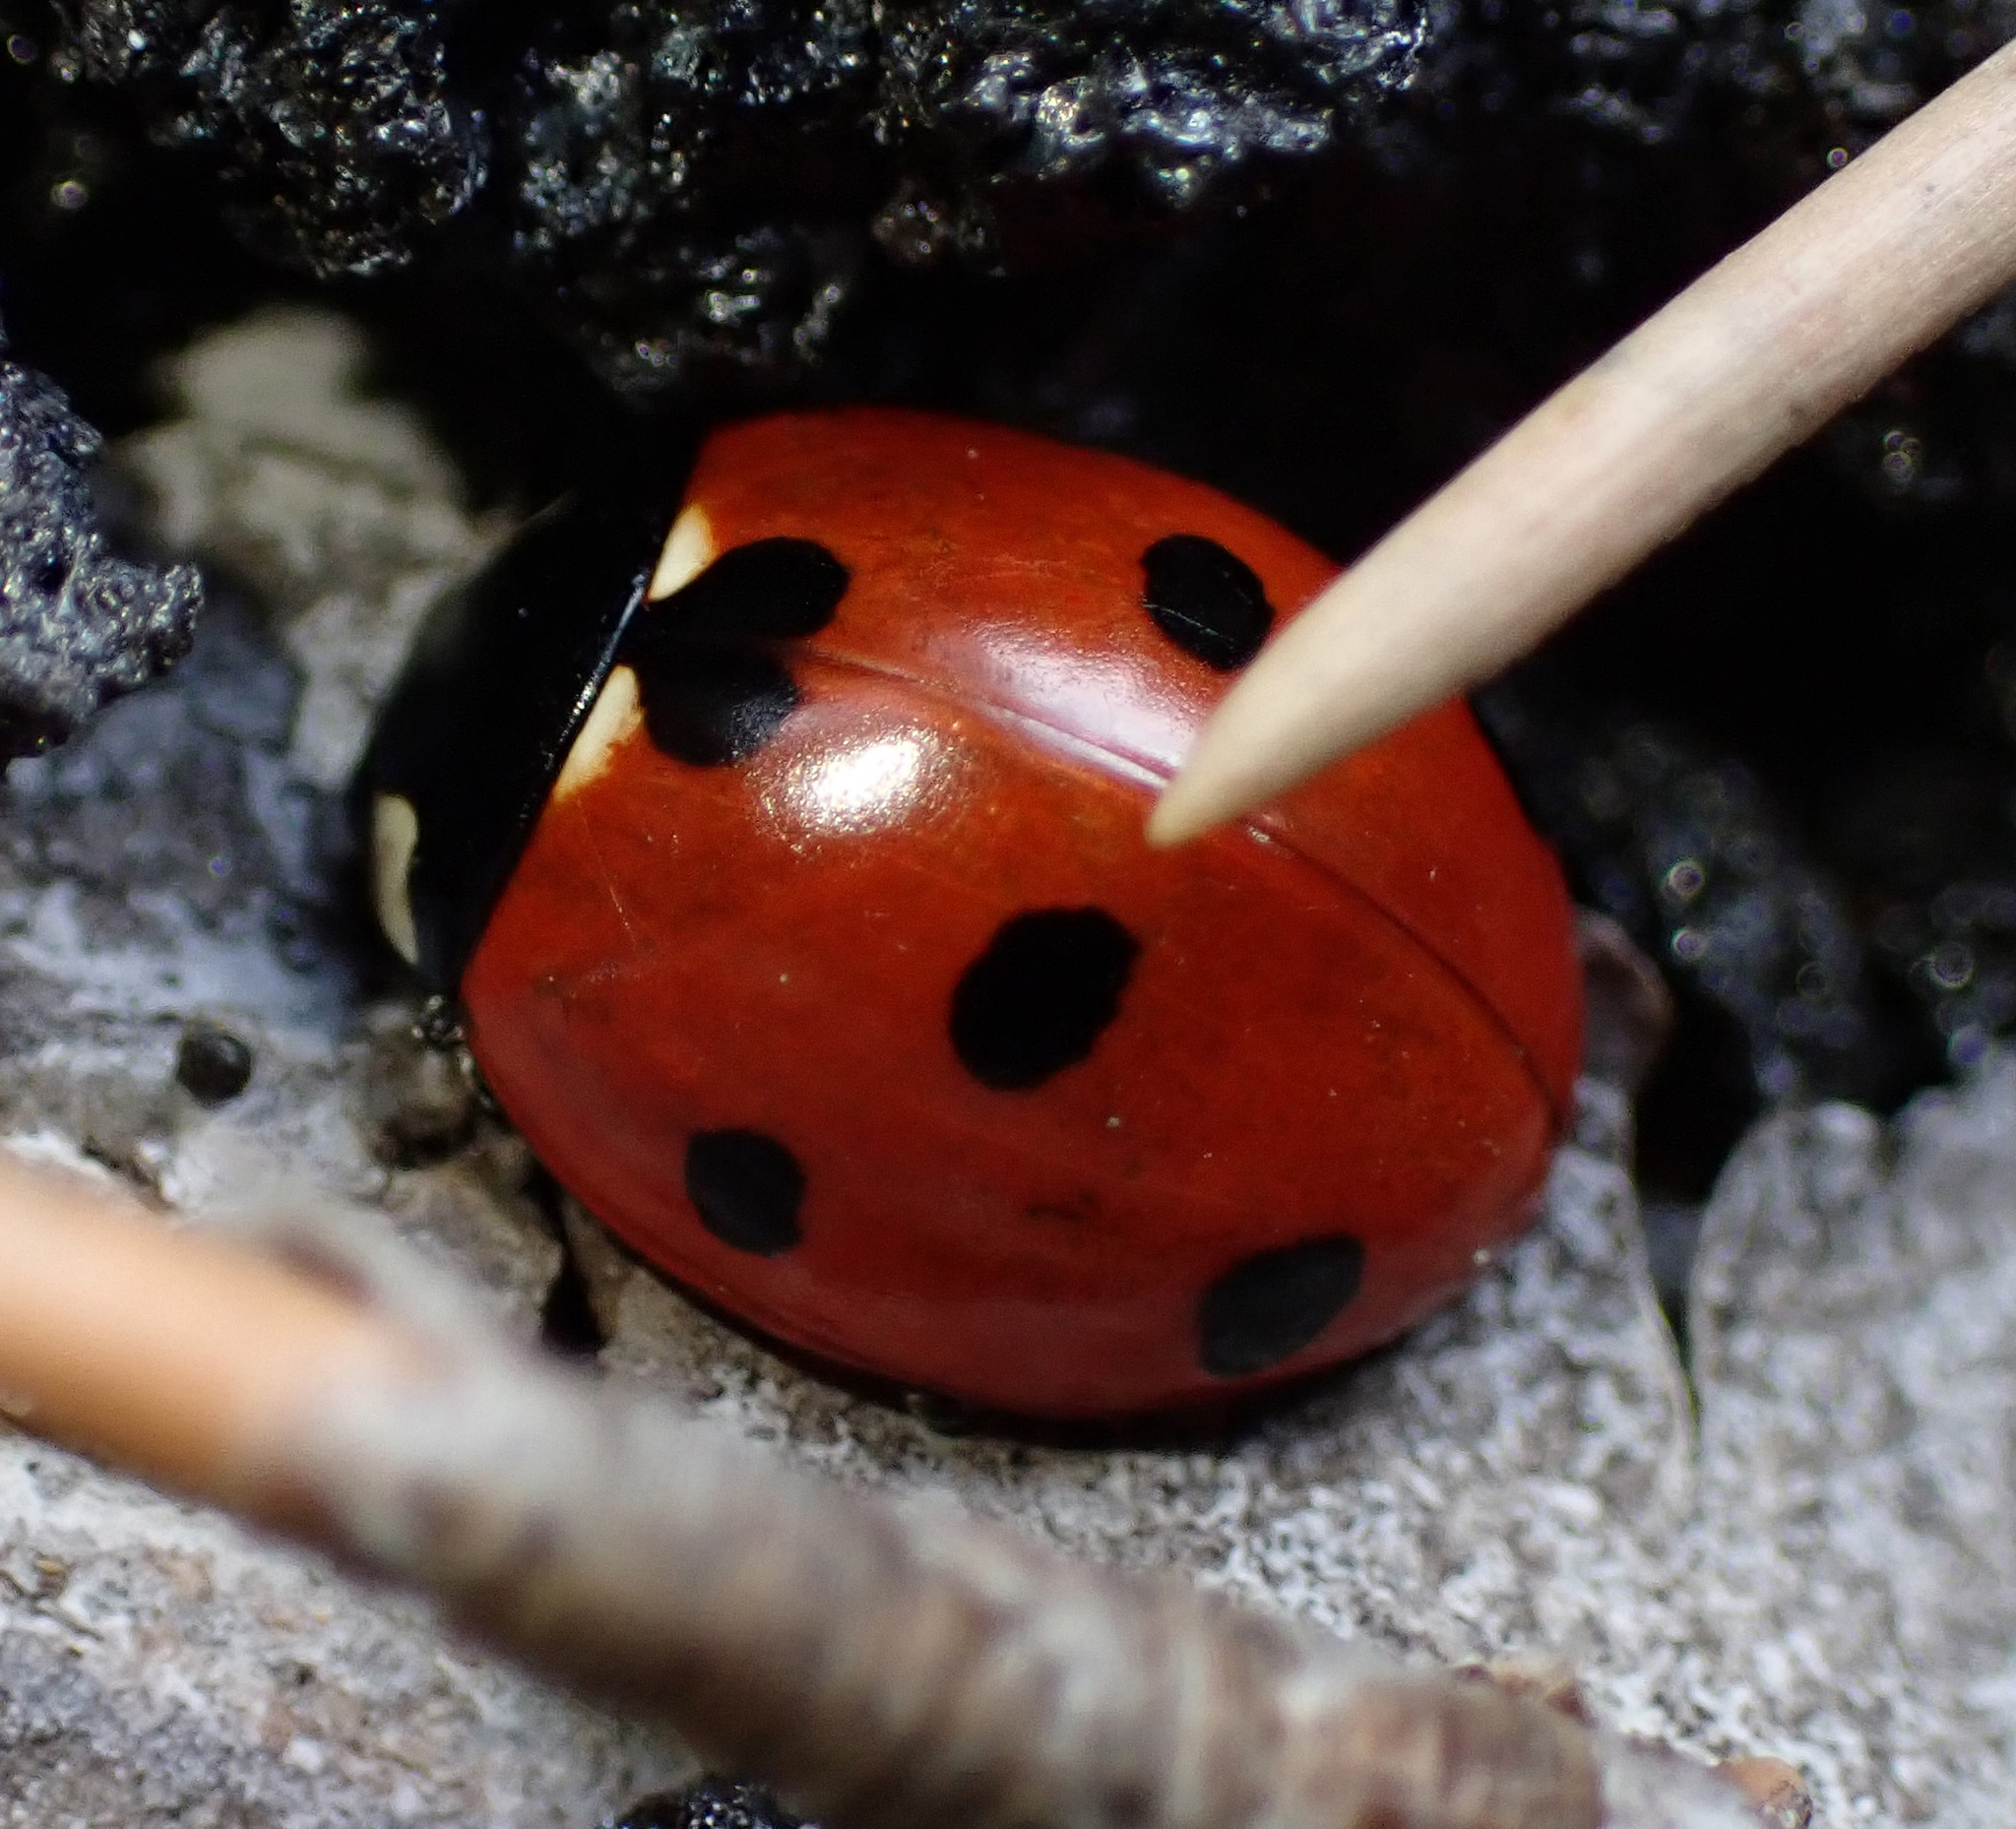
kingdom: Animalia
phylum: Arthropoda
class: Insecta
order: Coleoptera
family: Coccinellidae
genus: Coccinella
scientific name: Coccinella septempunctata
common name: Sevenspotted lady beetle
